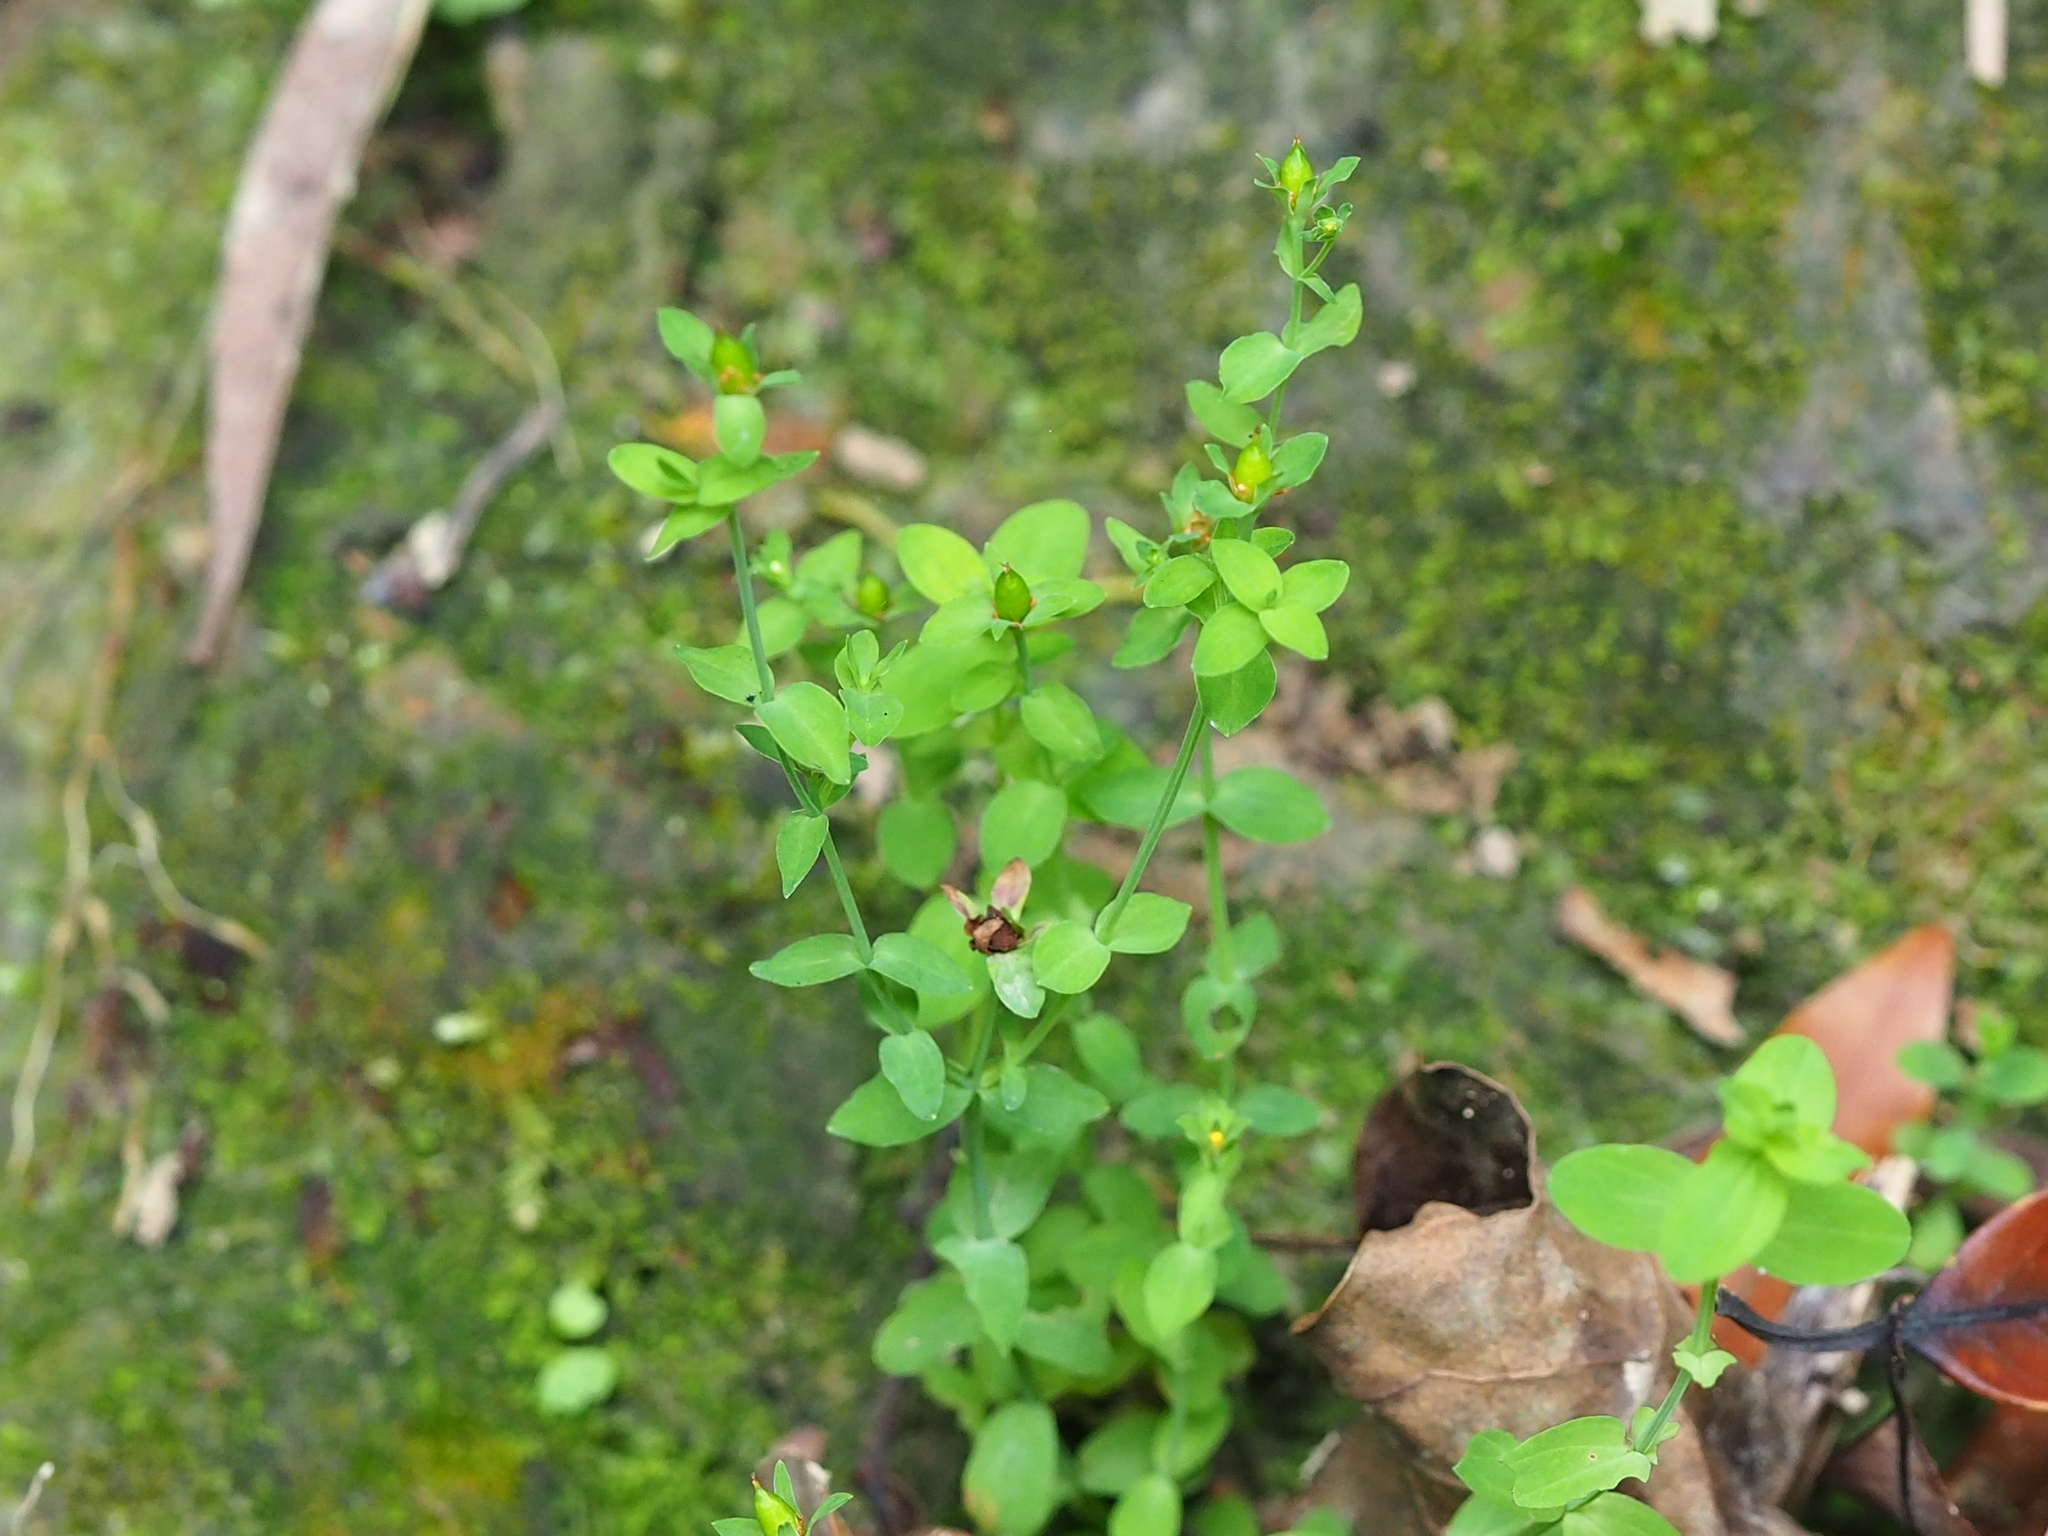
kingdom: Plantae
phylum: Tracheophyta
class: Magnoliopsida
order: Malpighiales
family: Hypericaceae
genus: Hypericum
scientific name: Hypericum japonicum
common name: Matted st. john's-wort
